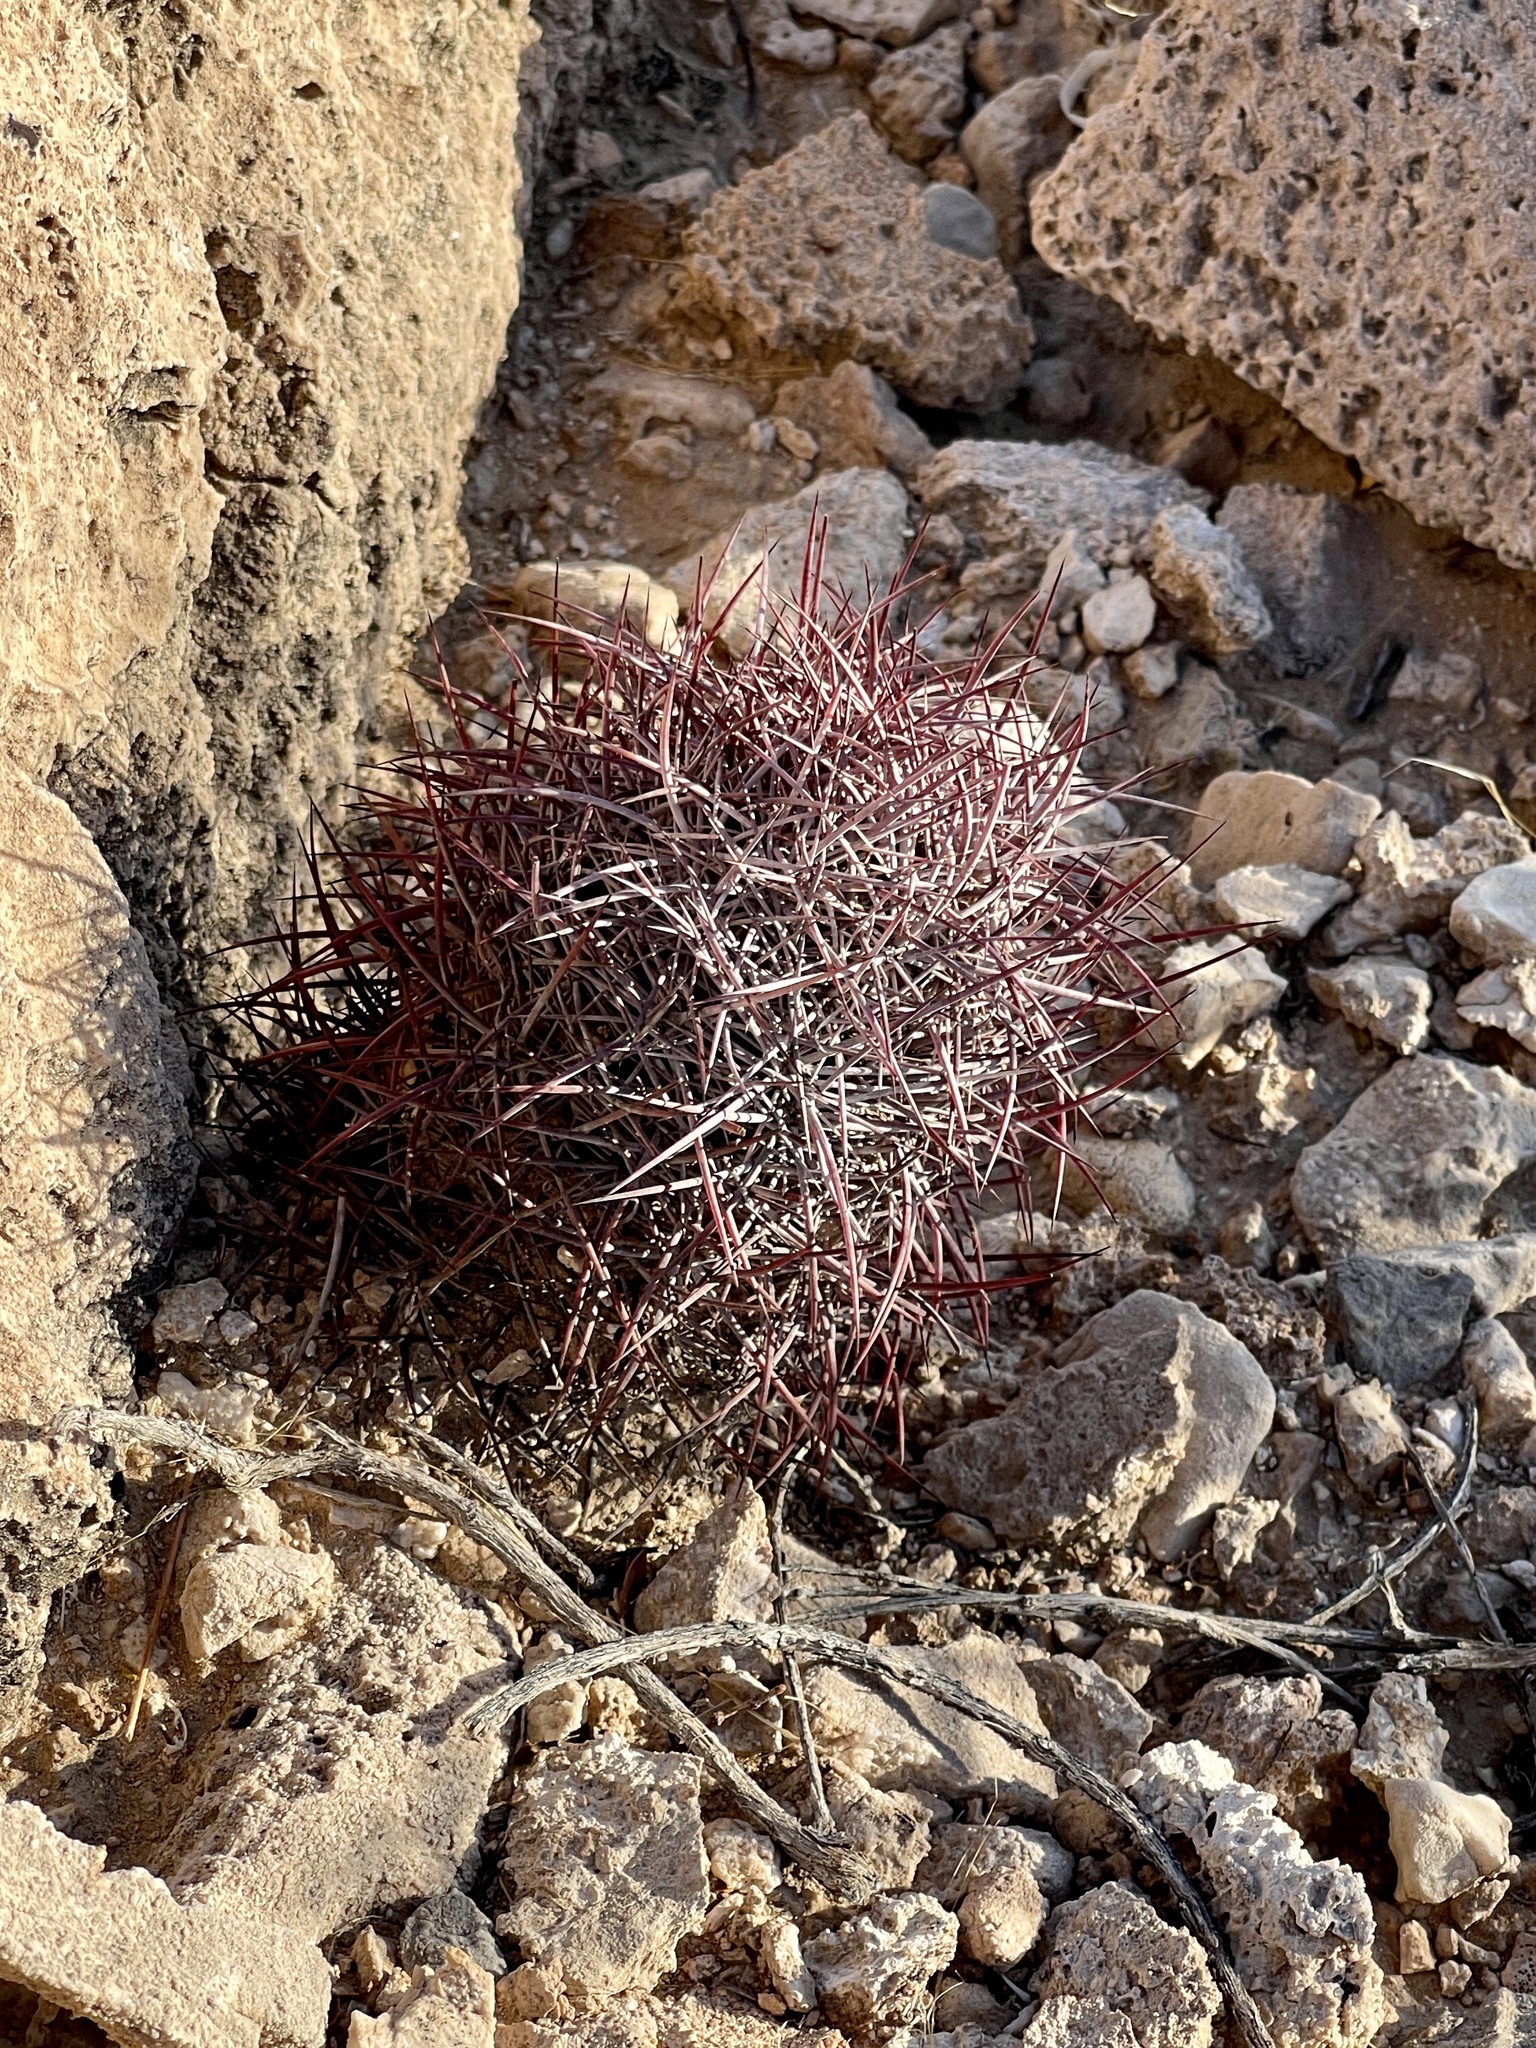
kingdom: Plantae
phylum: Tracheophyta
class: Magnoliopsida
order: Caryophyllales
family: Cactaceae
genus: Ferocactus
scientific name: Ferocactus cylindraceus
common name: California barrel cactus
